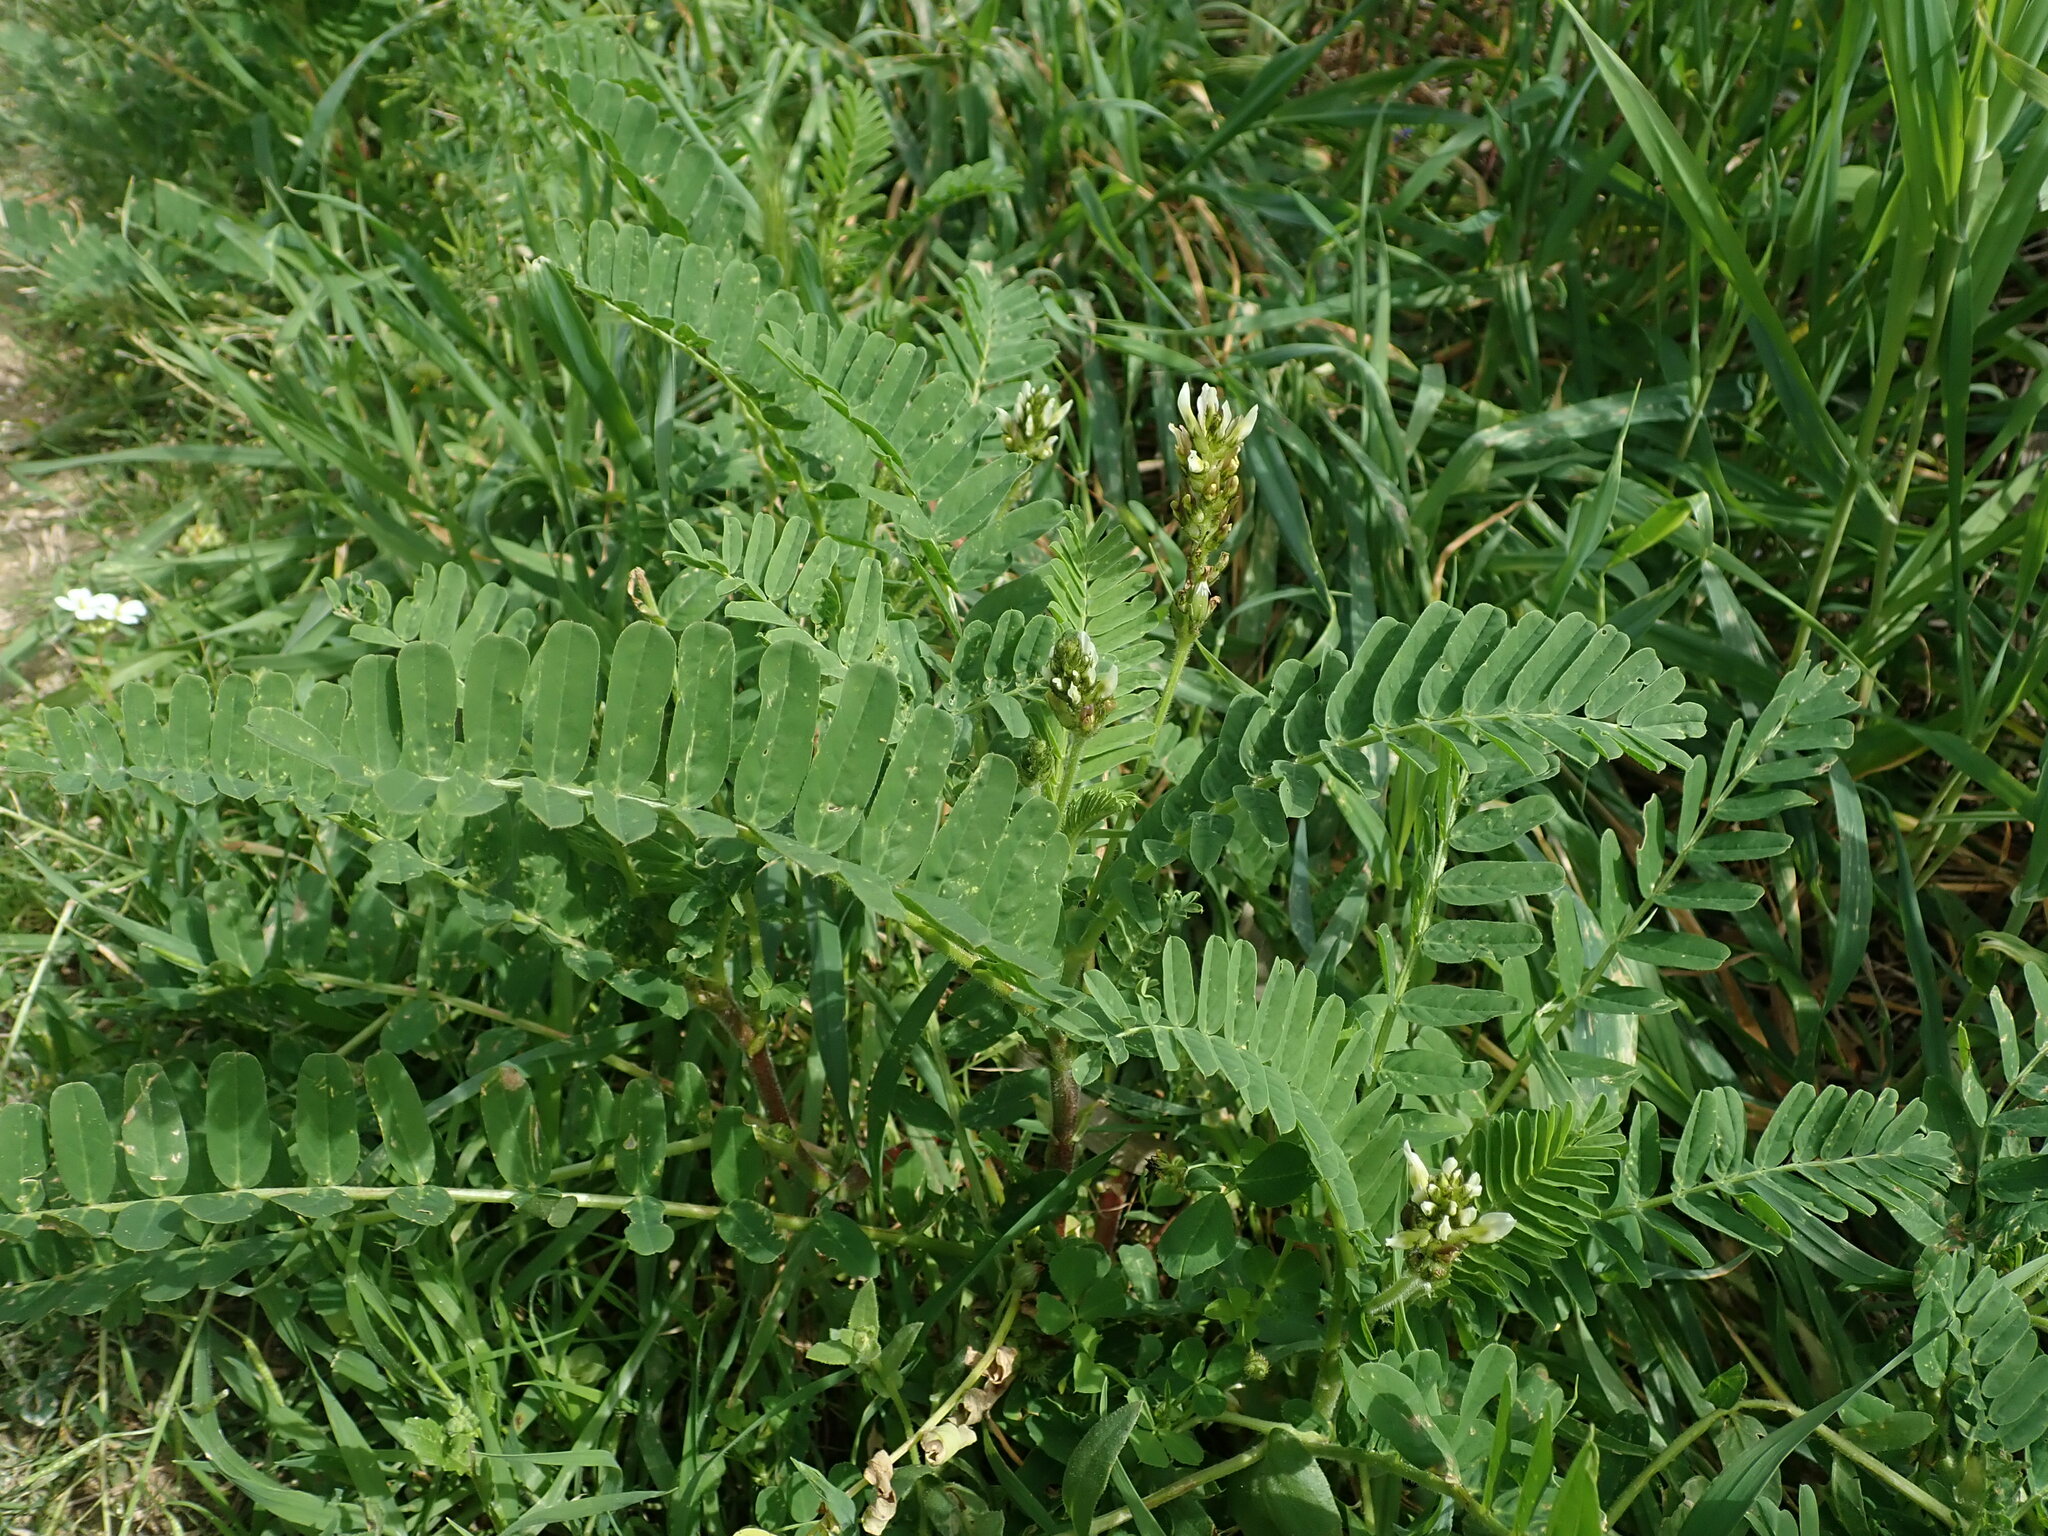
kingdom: Plantae
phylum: Tracheophyta
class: Magnoliopsida
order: Fabales
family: Fabaceae
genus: Astragalus
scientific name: Astragalus boeticus
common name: Milk-vetch
